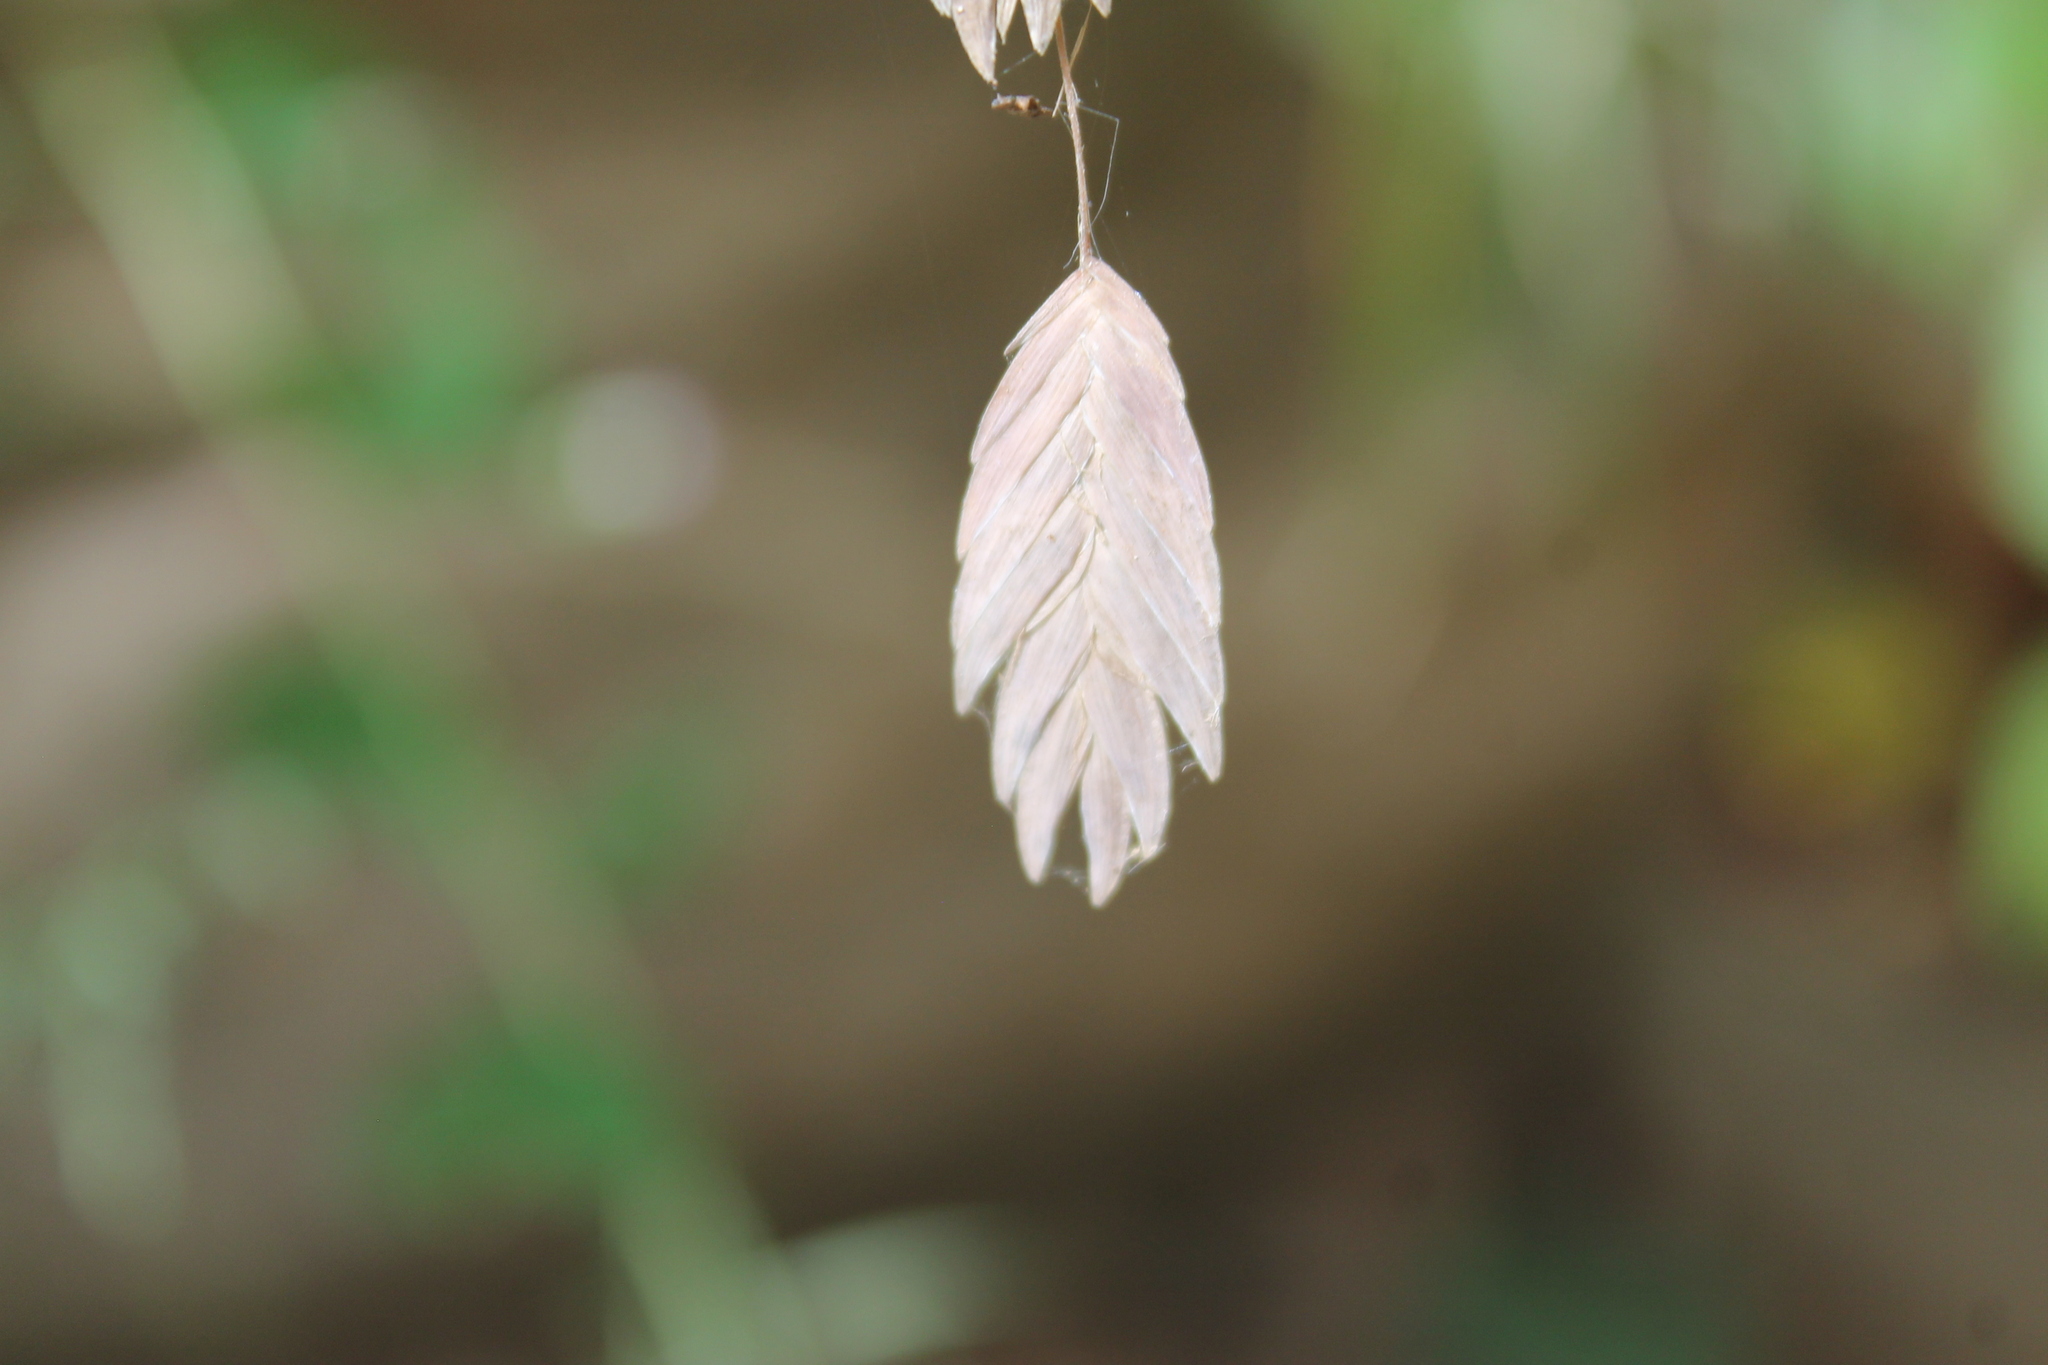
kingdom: Plantae
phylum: Tracheophyta
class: Liliopsida
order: Poales
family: Poaceae
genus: Chasmanthium
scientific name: Chasmanthium latifolium
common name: Broad-leaved chasmanthium
